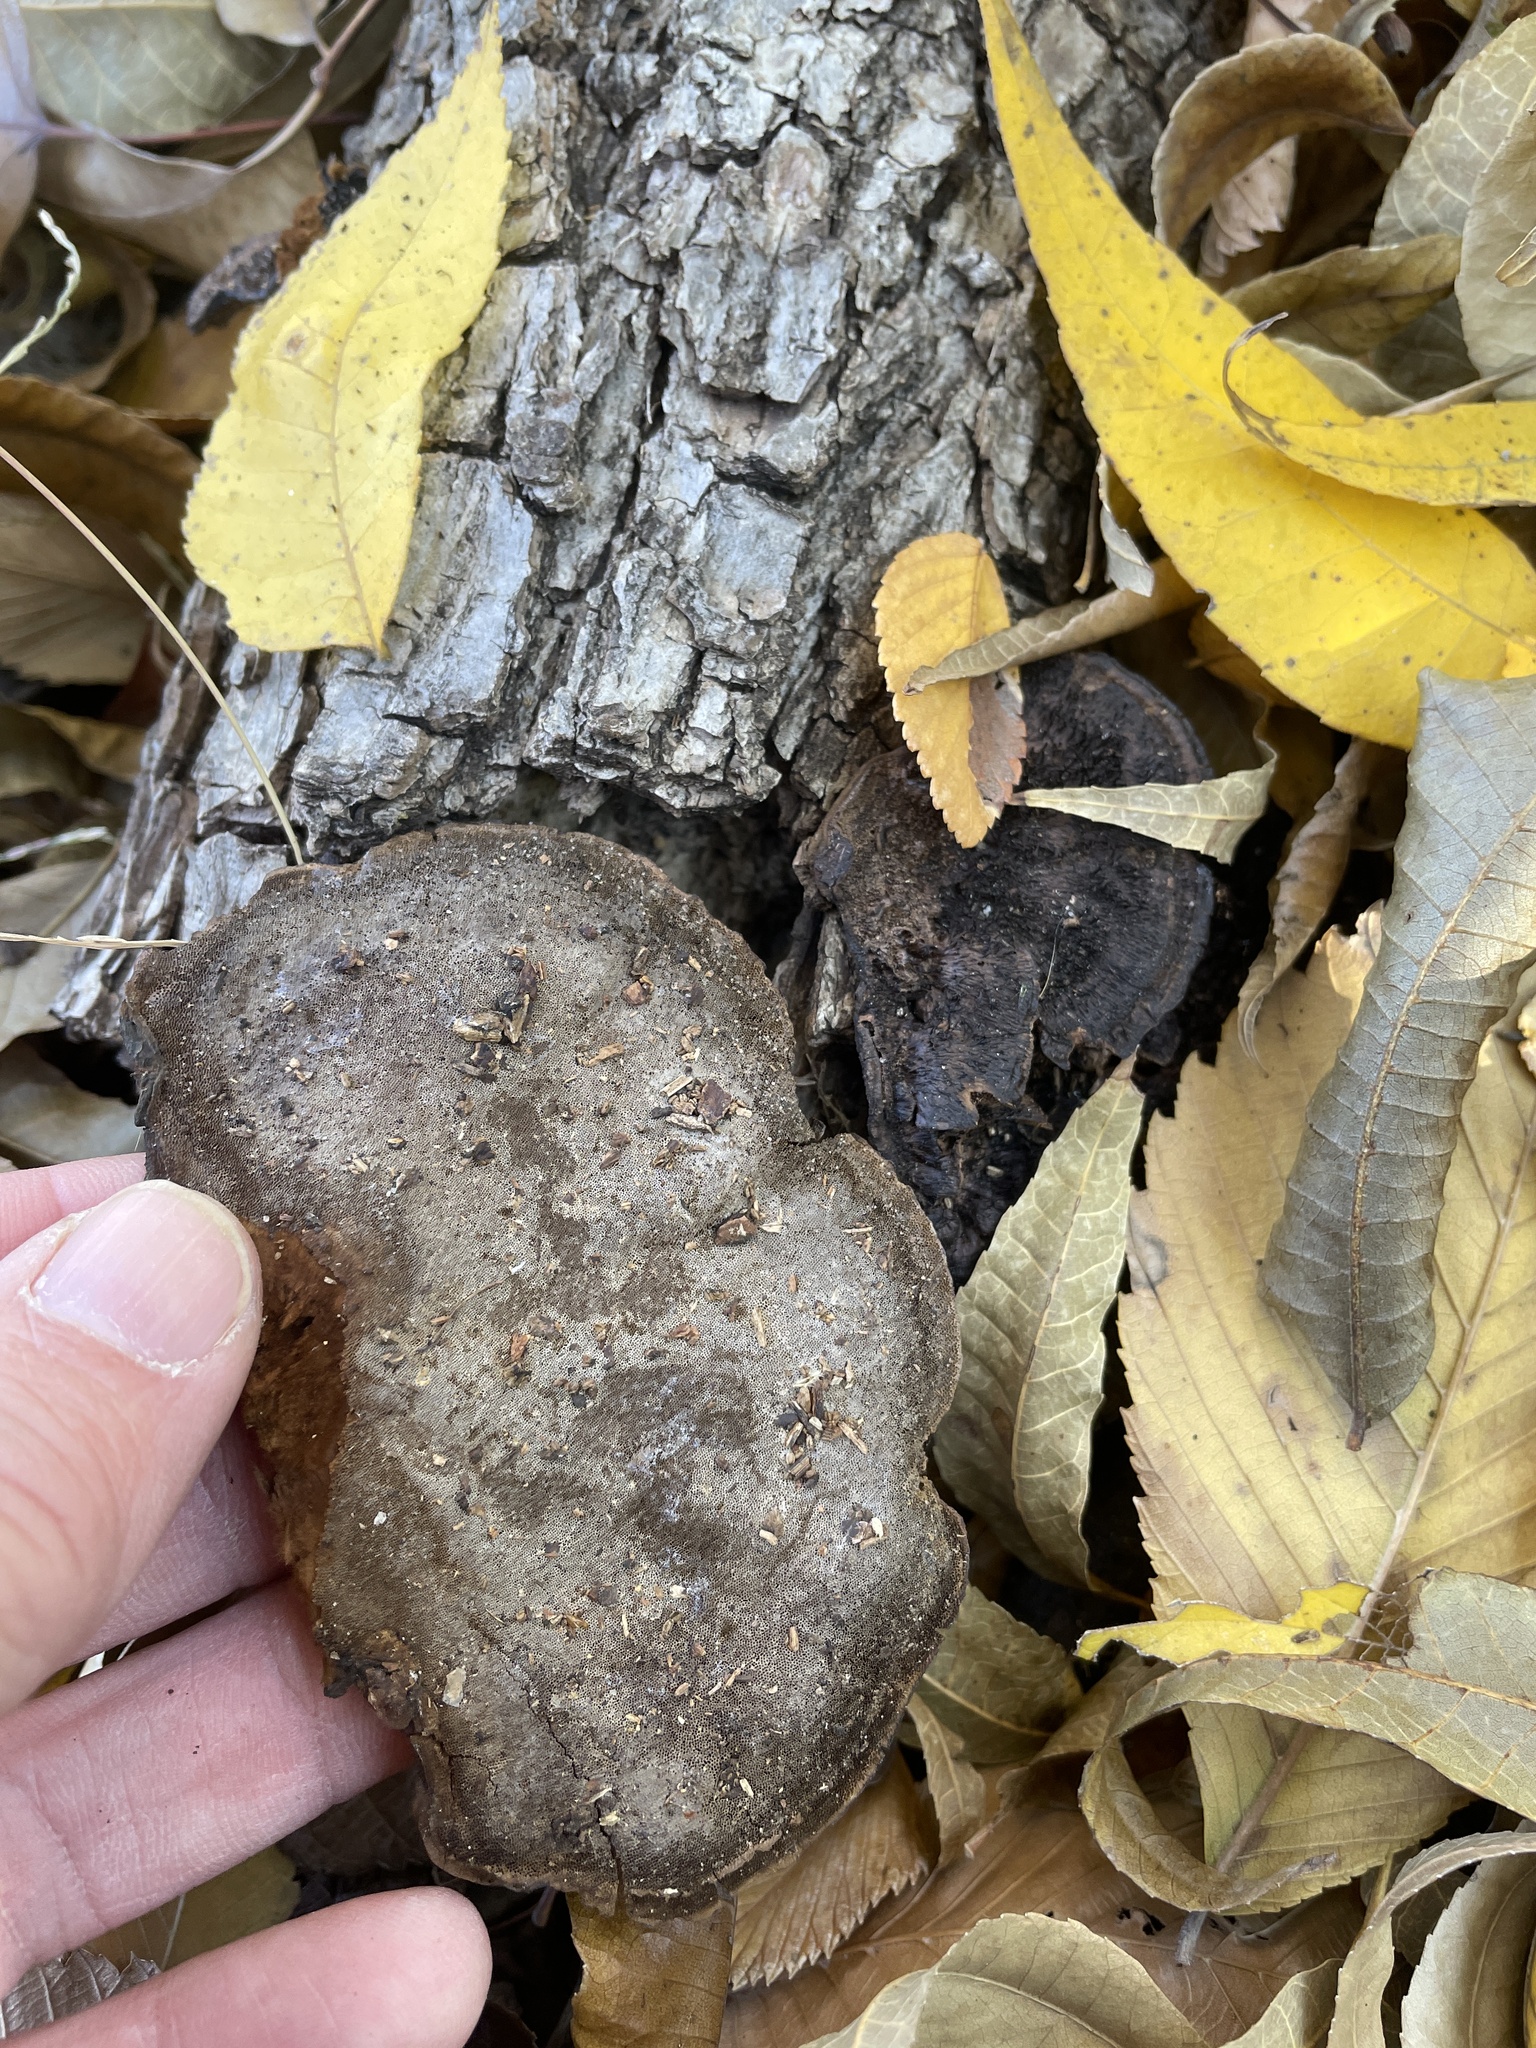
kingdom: Fungi
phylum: Basidiomycota
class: Agaricomycetes
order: Polyporales
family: Cerrenaceae
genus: Cerrena
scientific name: Cerrena hydnoides
